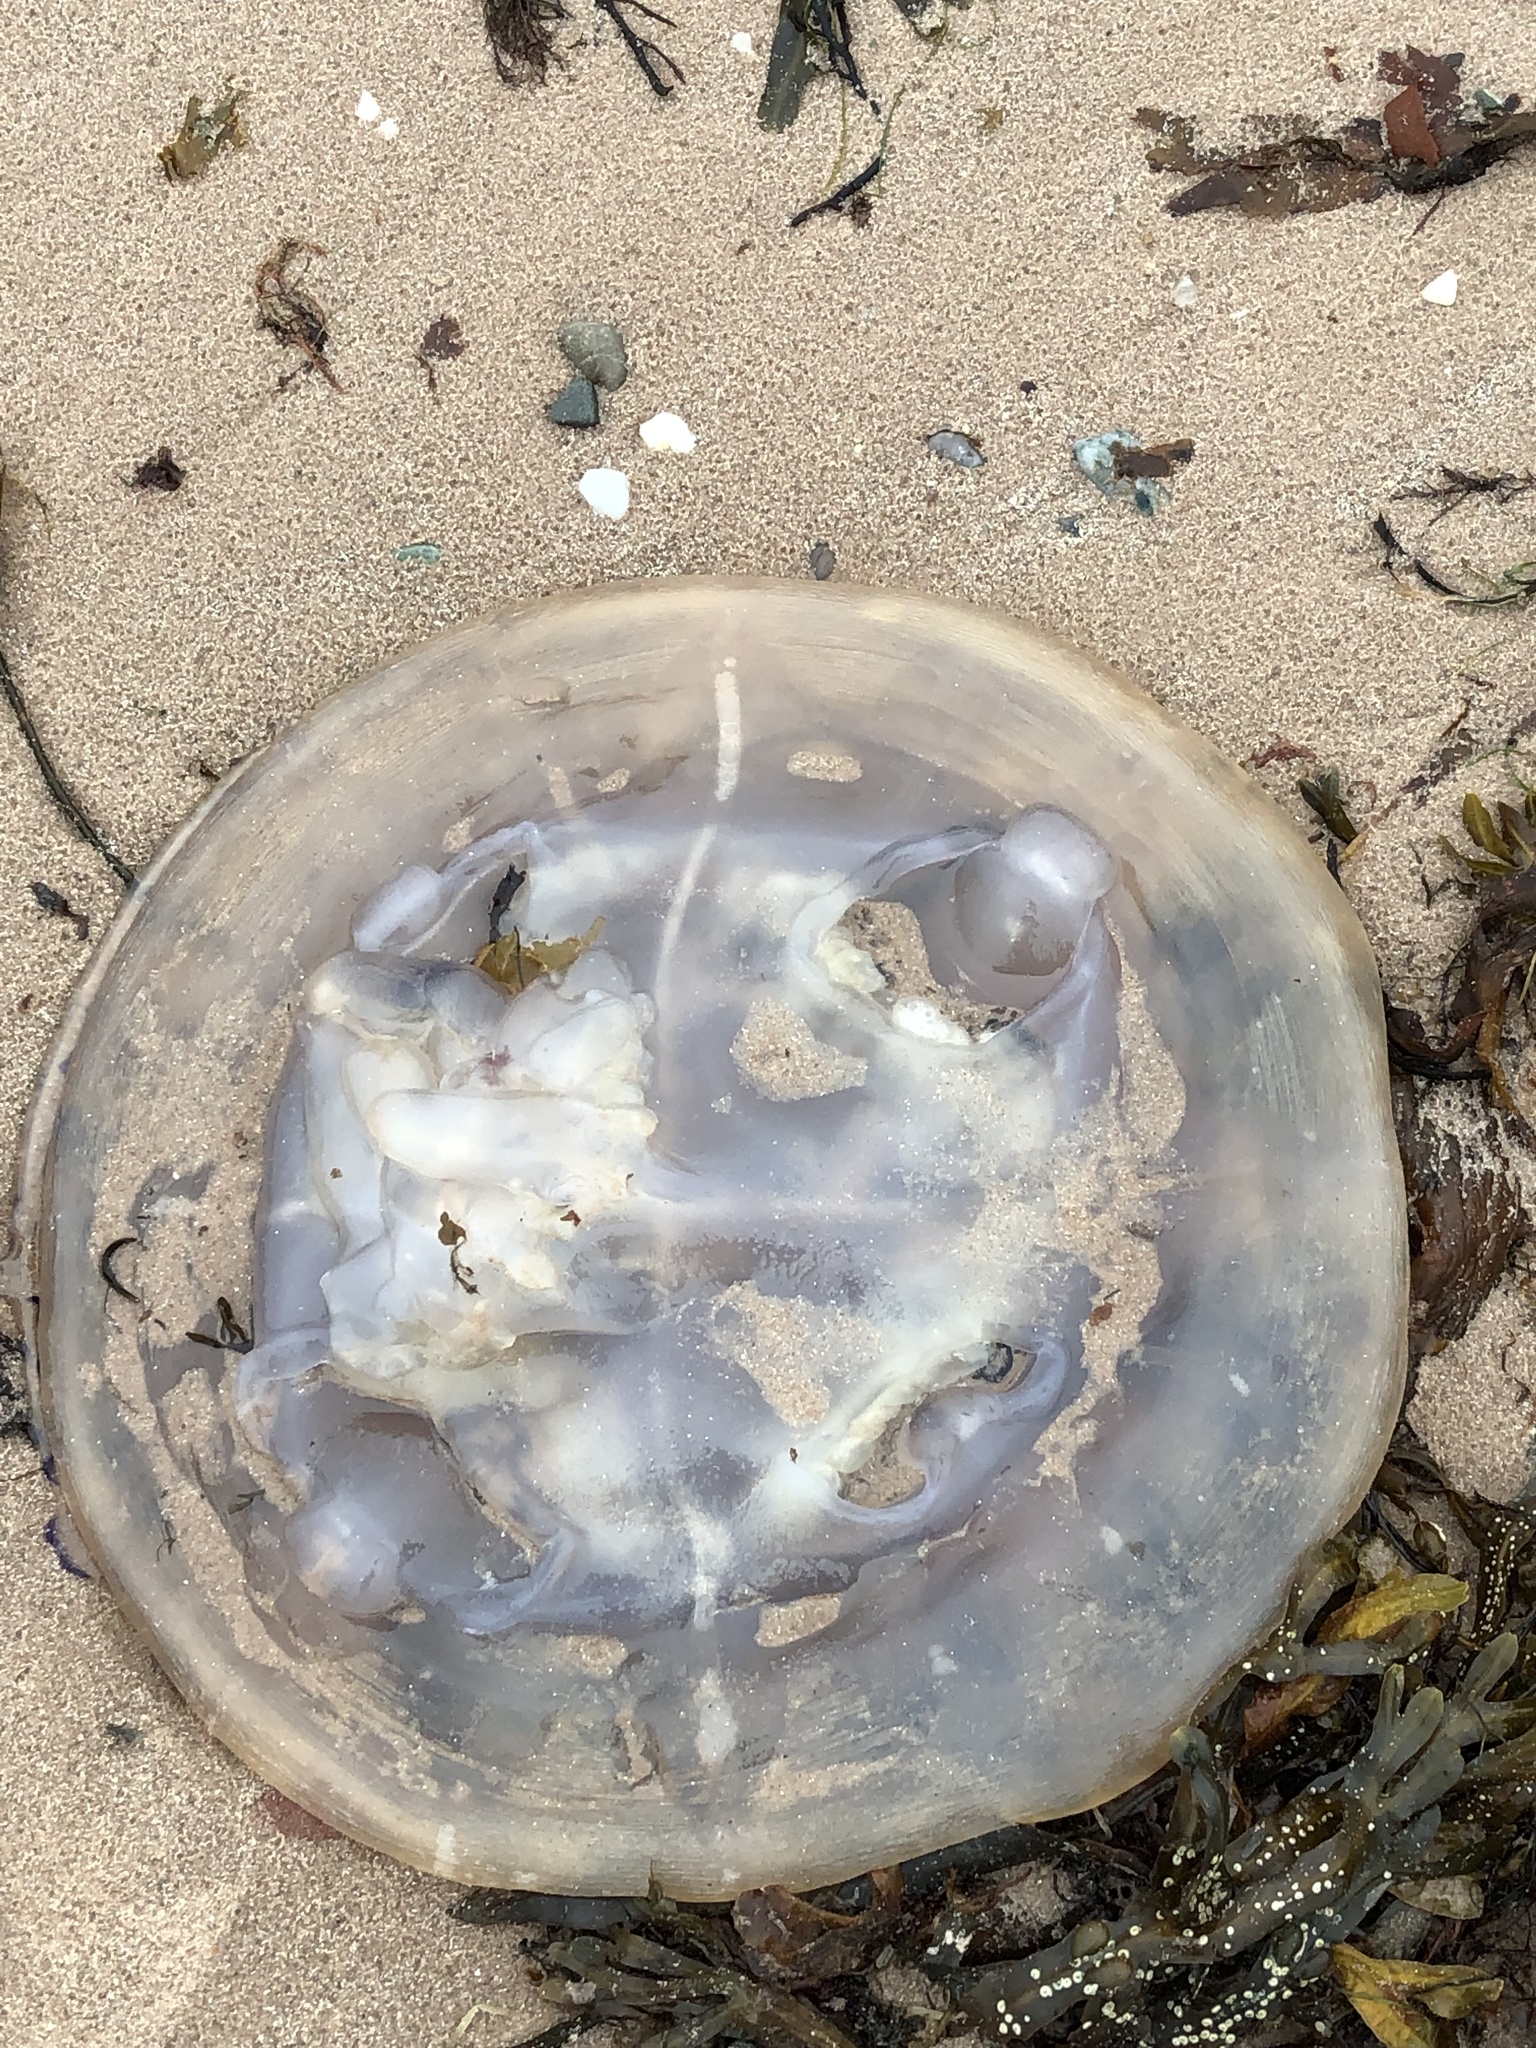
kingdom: Animalia
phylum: Cnidaria
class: Scyphozoa
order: Rhizostomeae
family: Rhizostomatidae
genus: Rhizostoma
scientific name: Rhizostoma octopus
